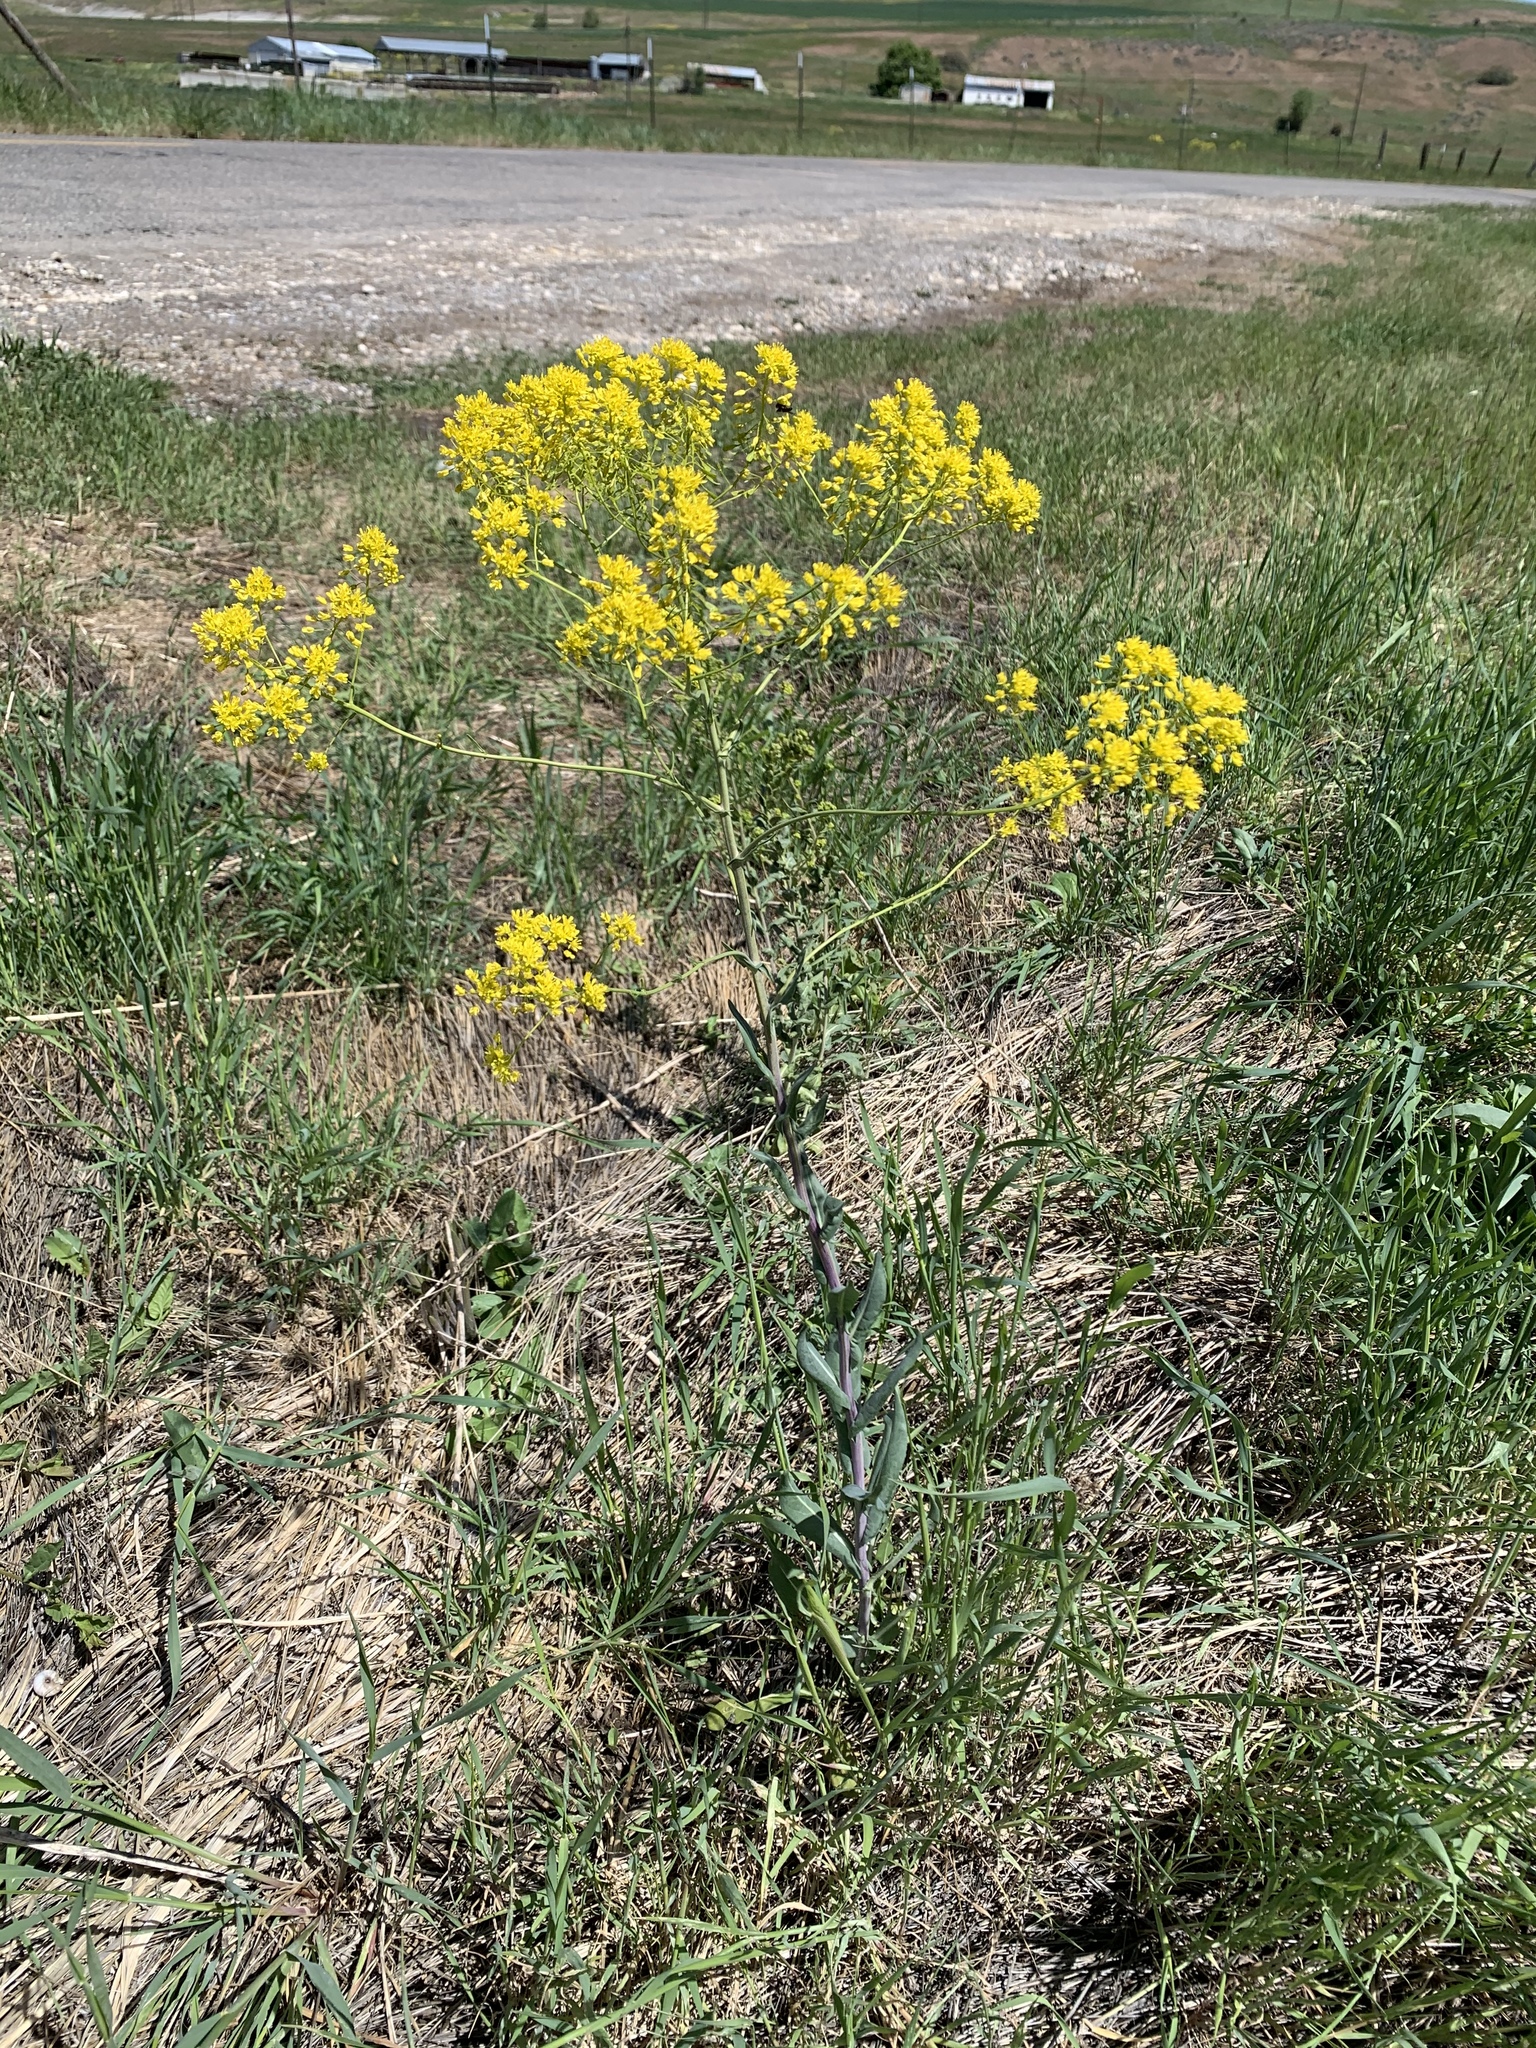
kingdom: Plantae
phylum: Tracheophyta
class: Magnoliopsida
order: Brassicales
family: Brassicaceae
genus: Isatis
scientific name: Isatis tinctoria
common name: Woad
